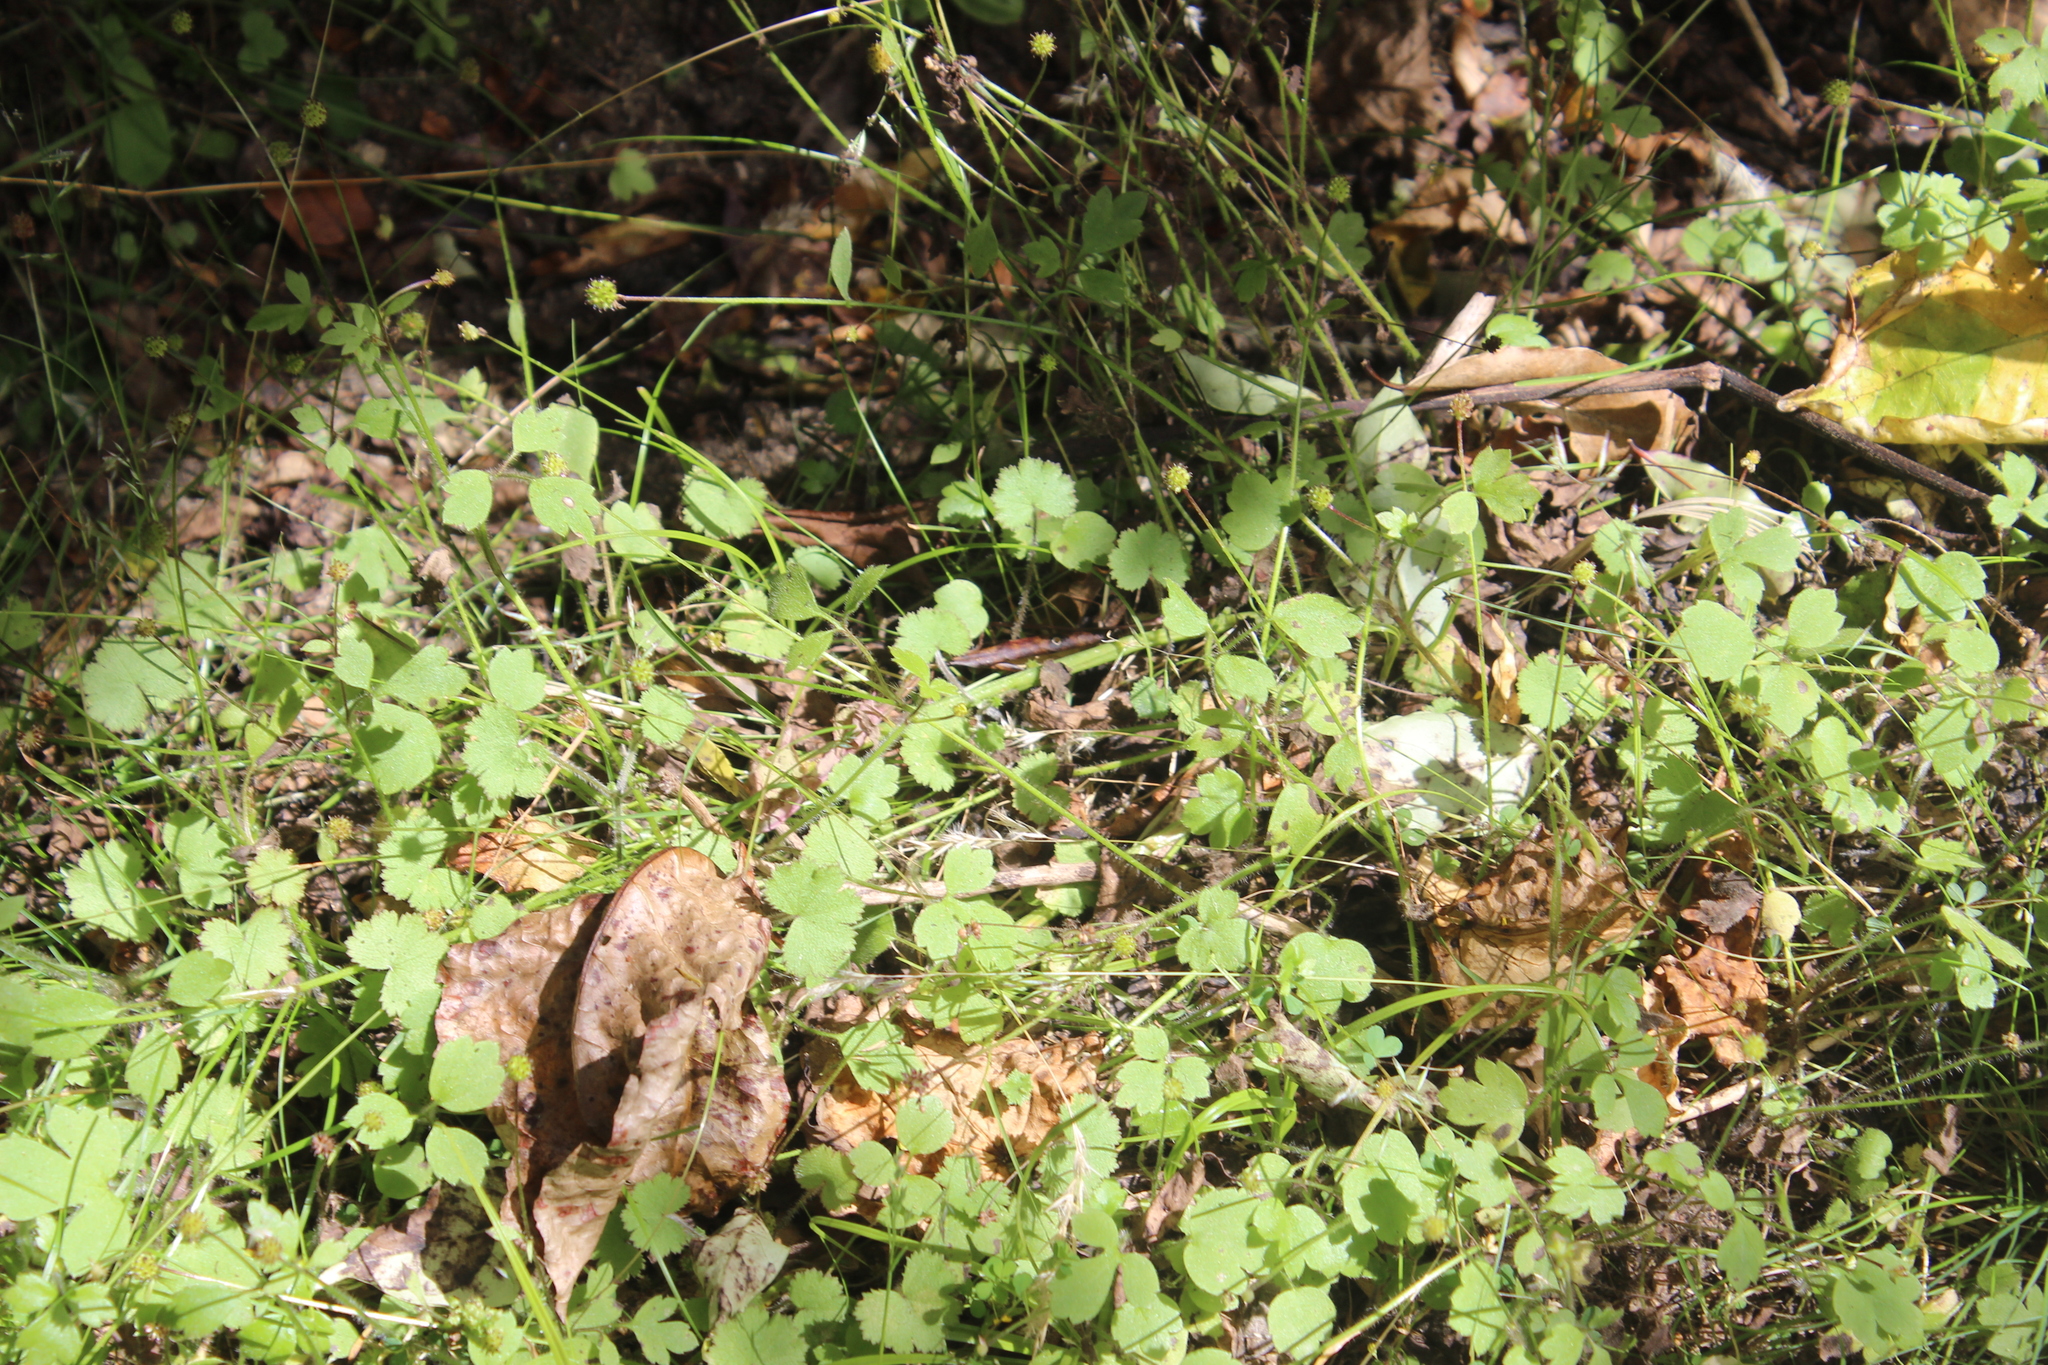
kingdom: Plantae
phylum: Tracheophyta
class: Magnoliopsida
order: Ranunculales
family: Ranunculaceae
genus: Ranunculus
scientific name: Ranunculus reflexus
